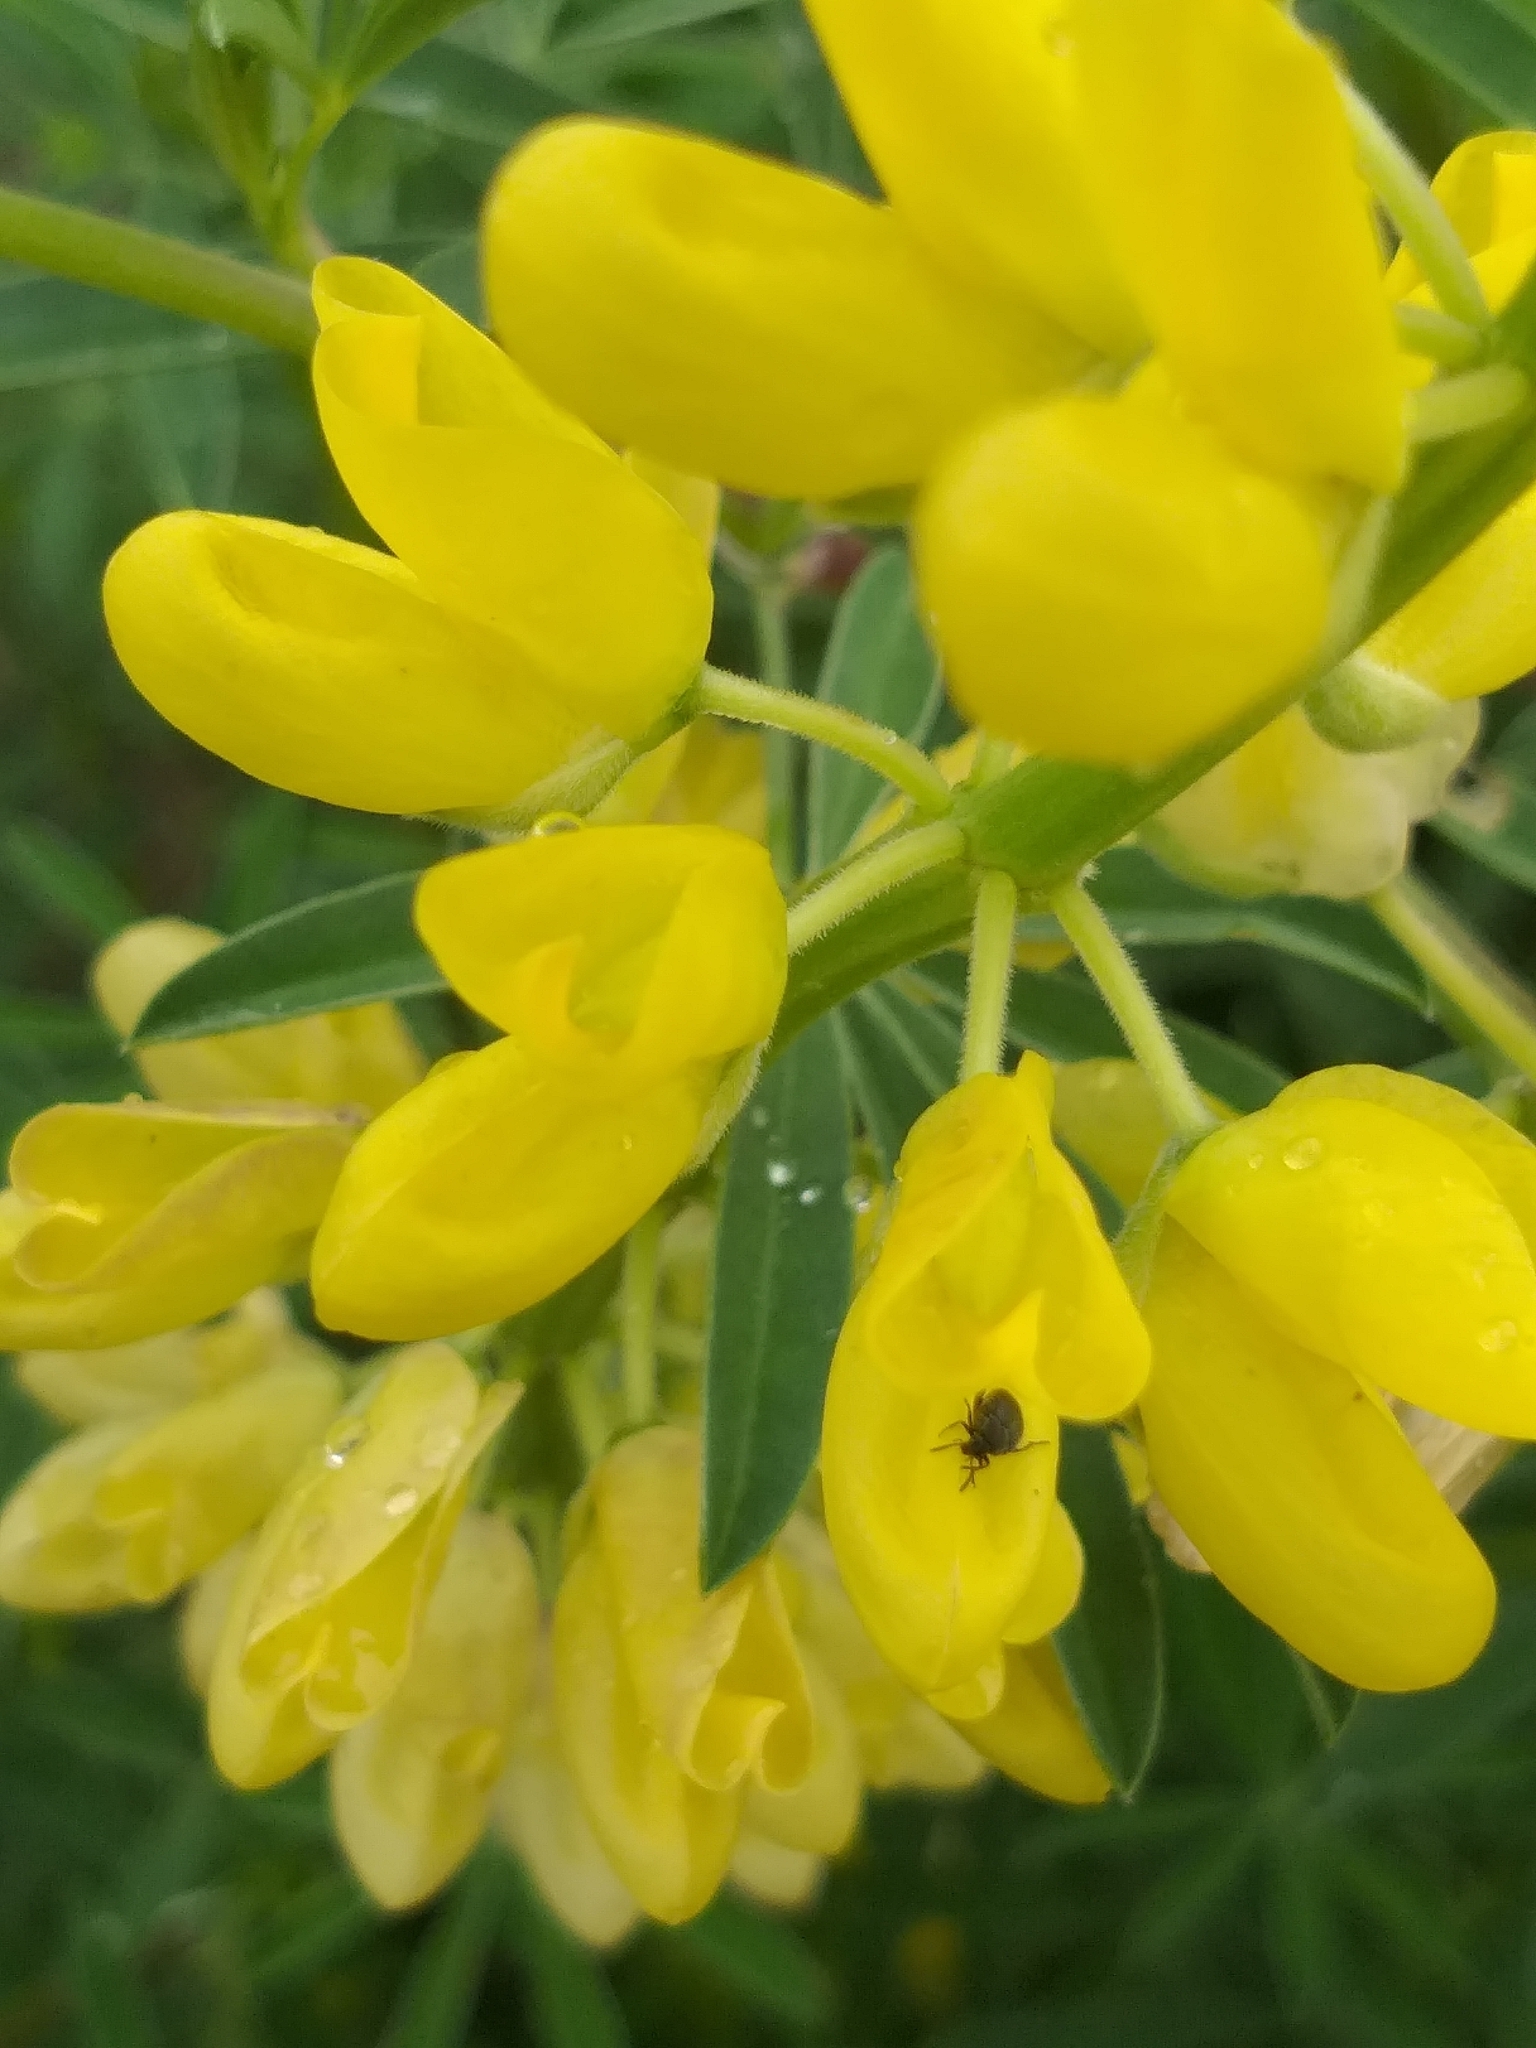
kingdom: Plantae
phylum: Tracheophyta
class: Magnoliopsida
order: Fabales
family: Fabaceae
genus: Lupinus
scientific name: Lupinus arboreus
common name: Yellow bush lupine
